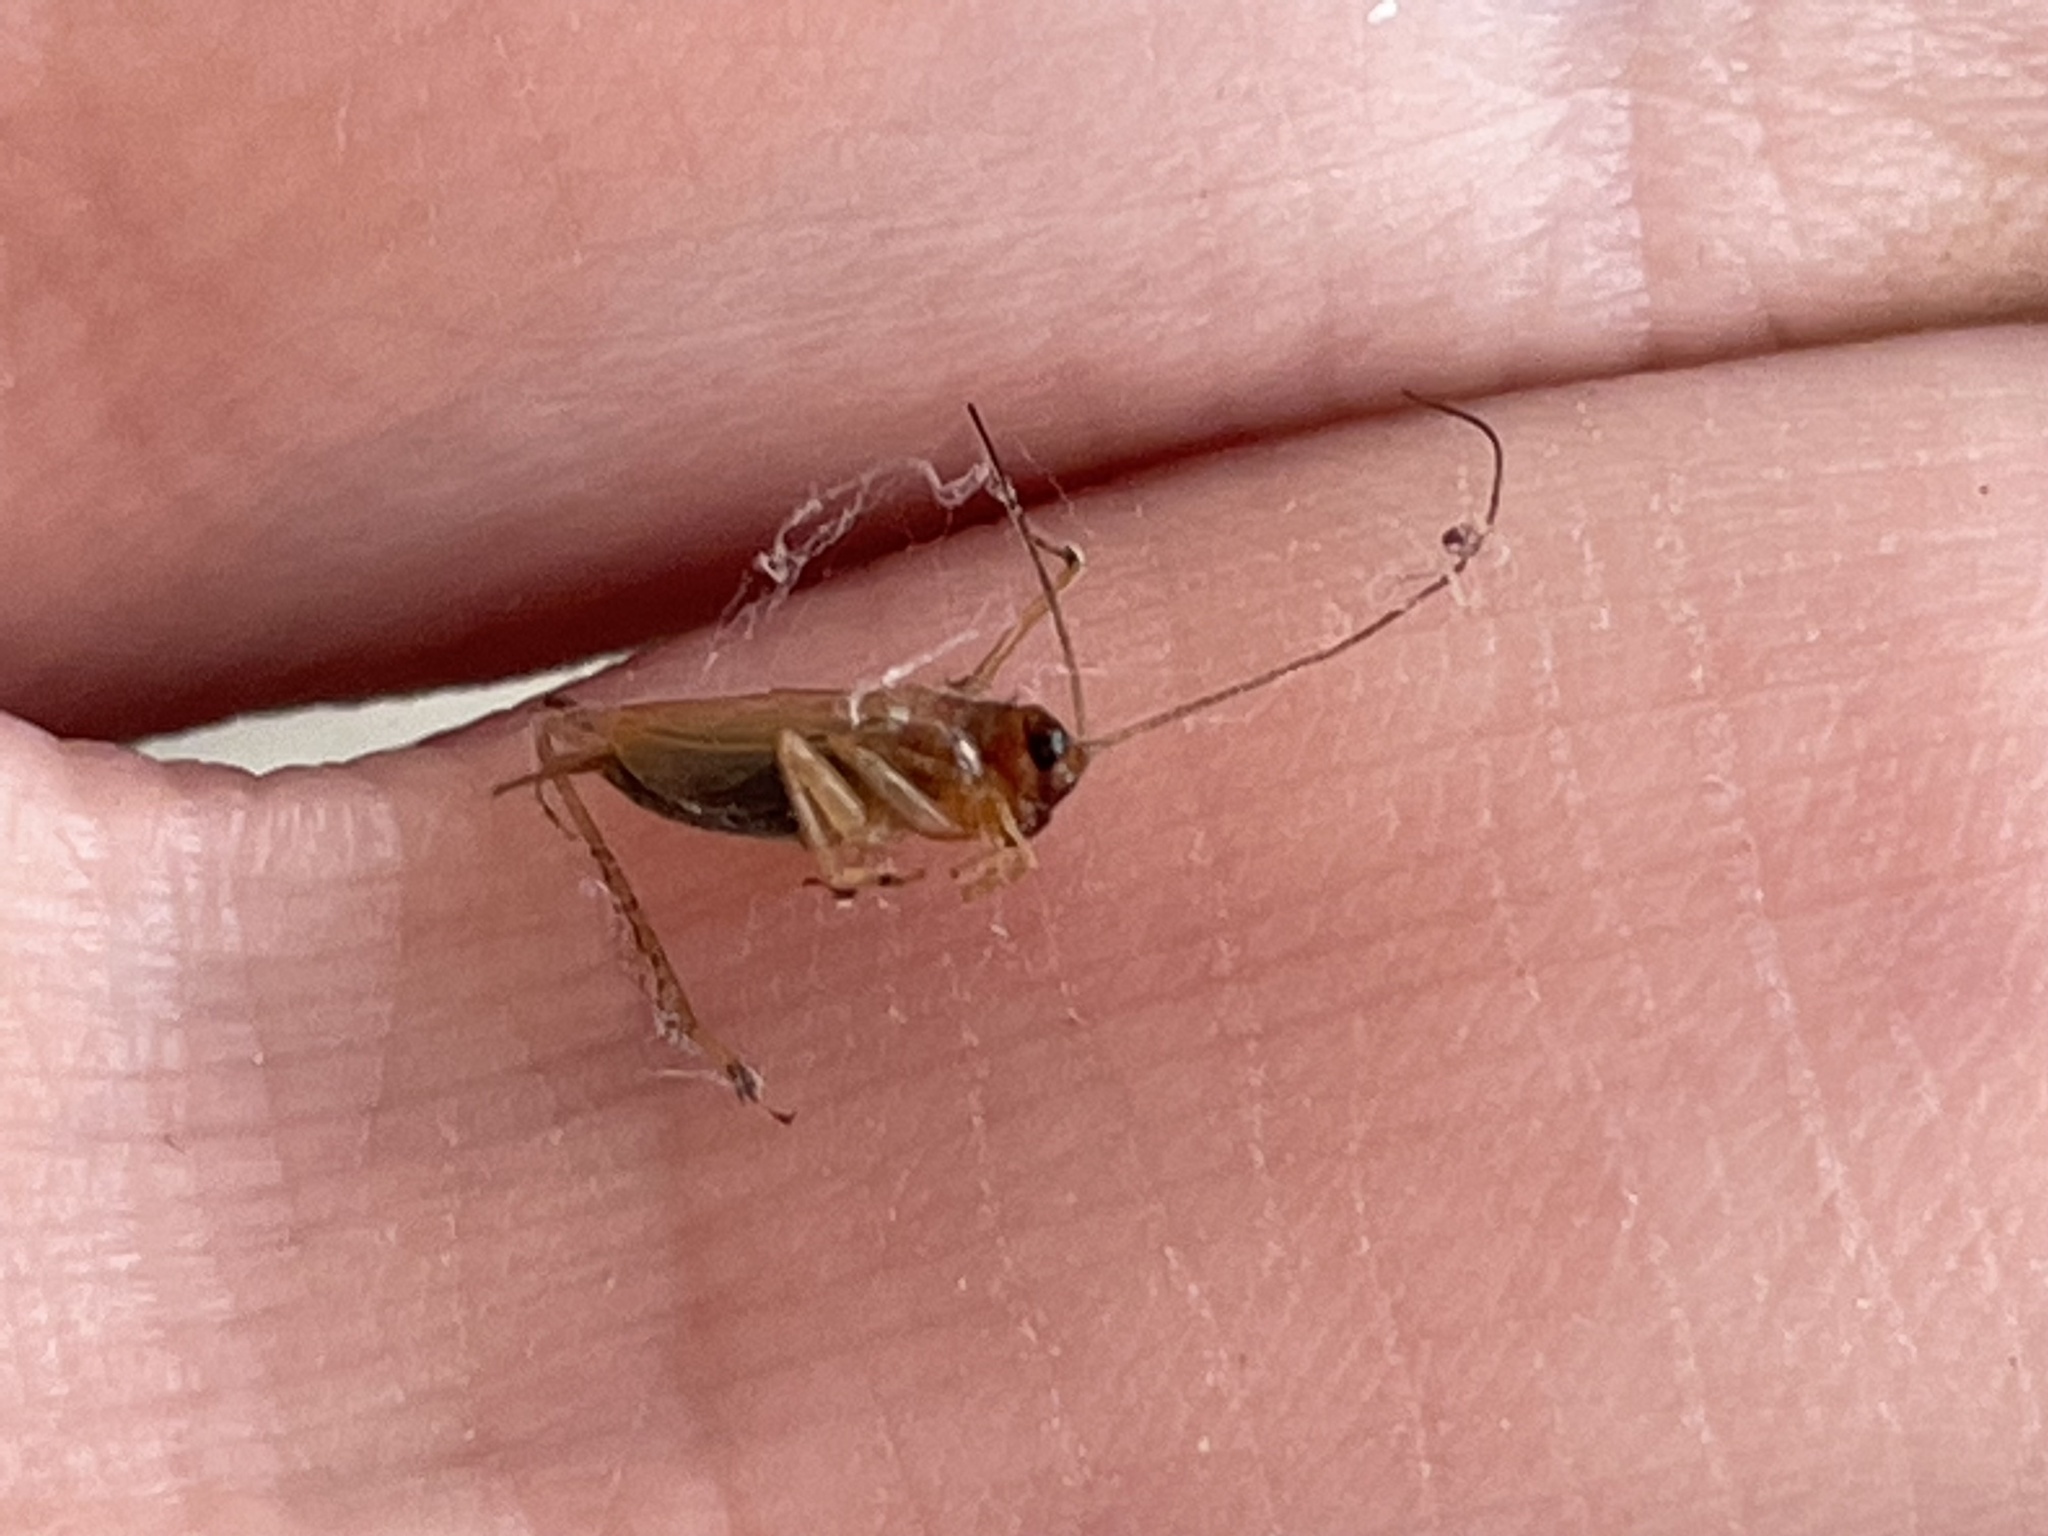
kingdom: Animalia
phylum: Arthropoda
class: Insecta
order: Orthoptera
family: Trigonidiidae
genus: Anaxipha
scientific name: Anaxipha exigua
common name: Say's bush cricket
